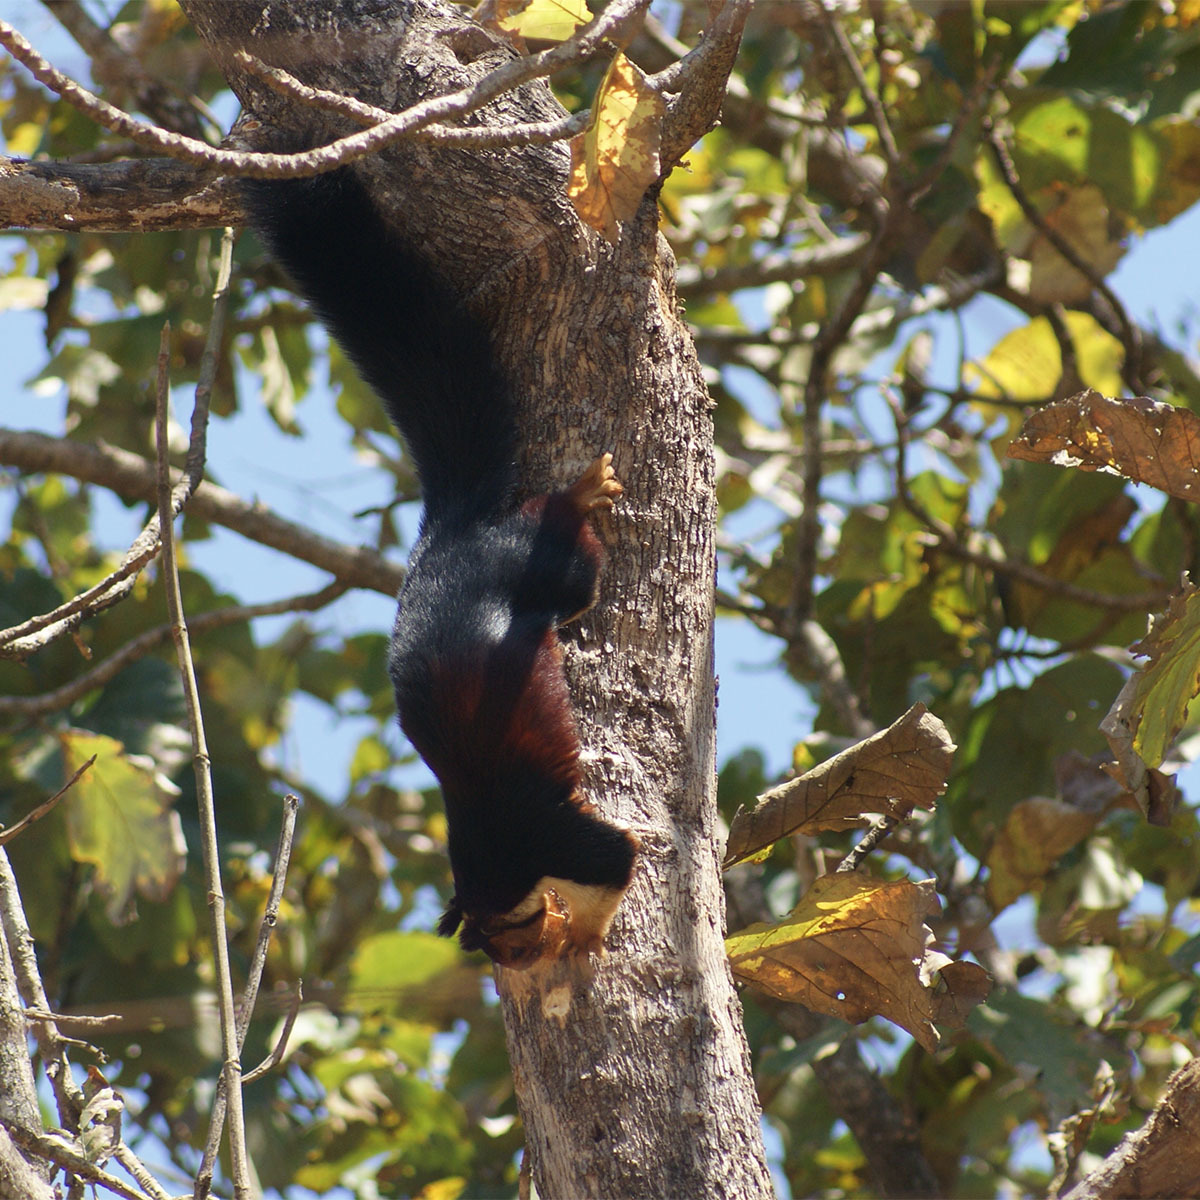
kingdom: Animalia
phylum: Chordata
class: Mammalia
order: Rodentia
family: Sciuridae
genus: Ratufa
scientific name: Ratufa indica
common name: Indian giant squirrel
